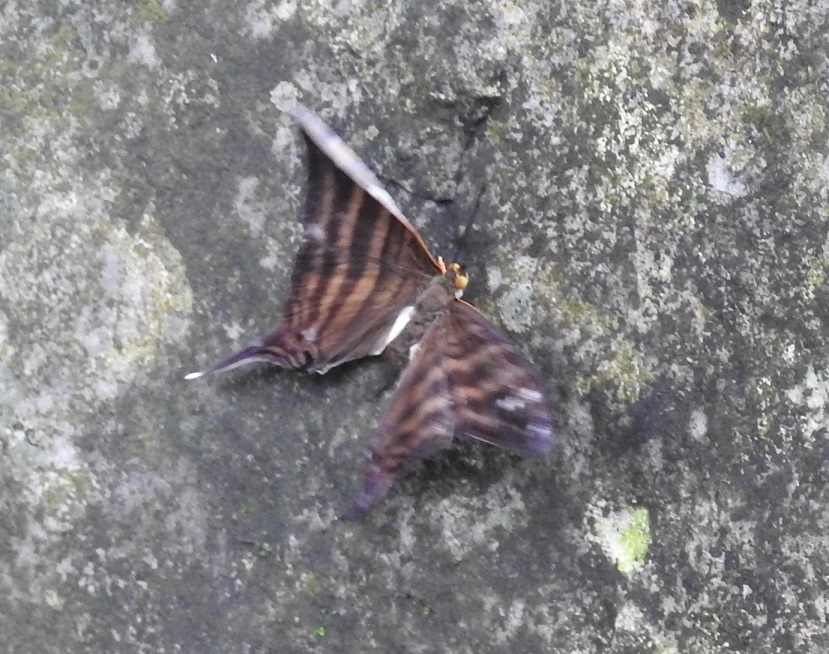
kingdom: Animalia
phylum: Arthropoda
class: Insecta
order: Lepidoptera
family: Nymphalidae
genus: Marpesia
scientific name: Marpesia chiron
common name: Many-banded daggerwing
